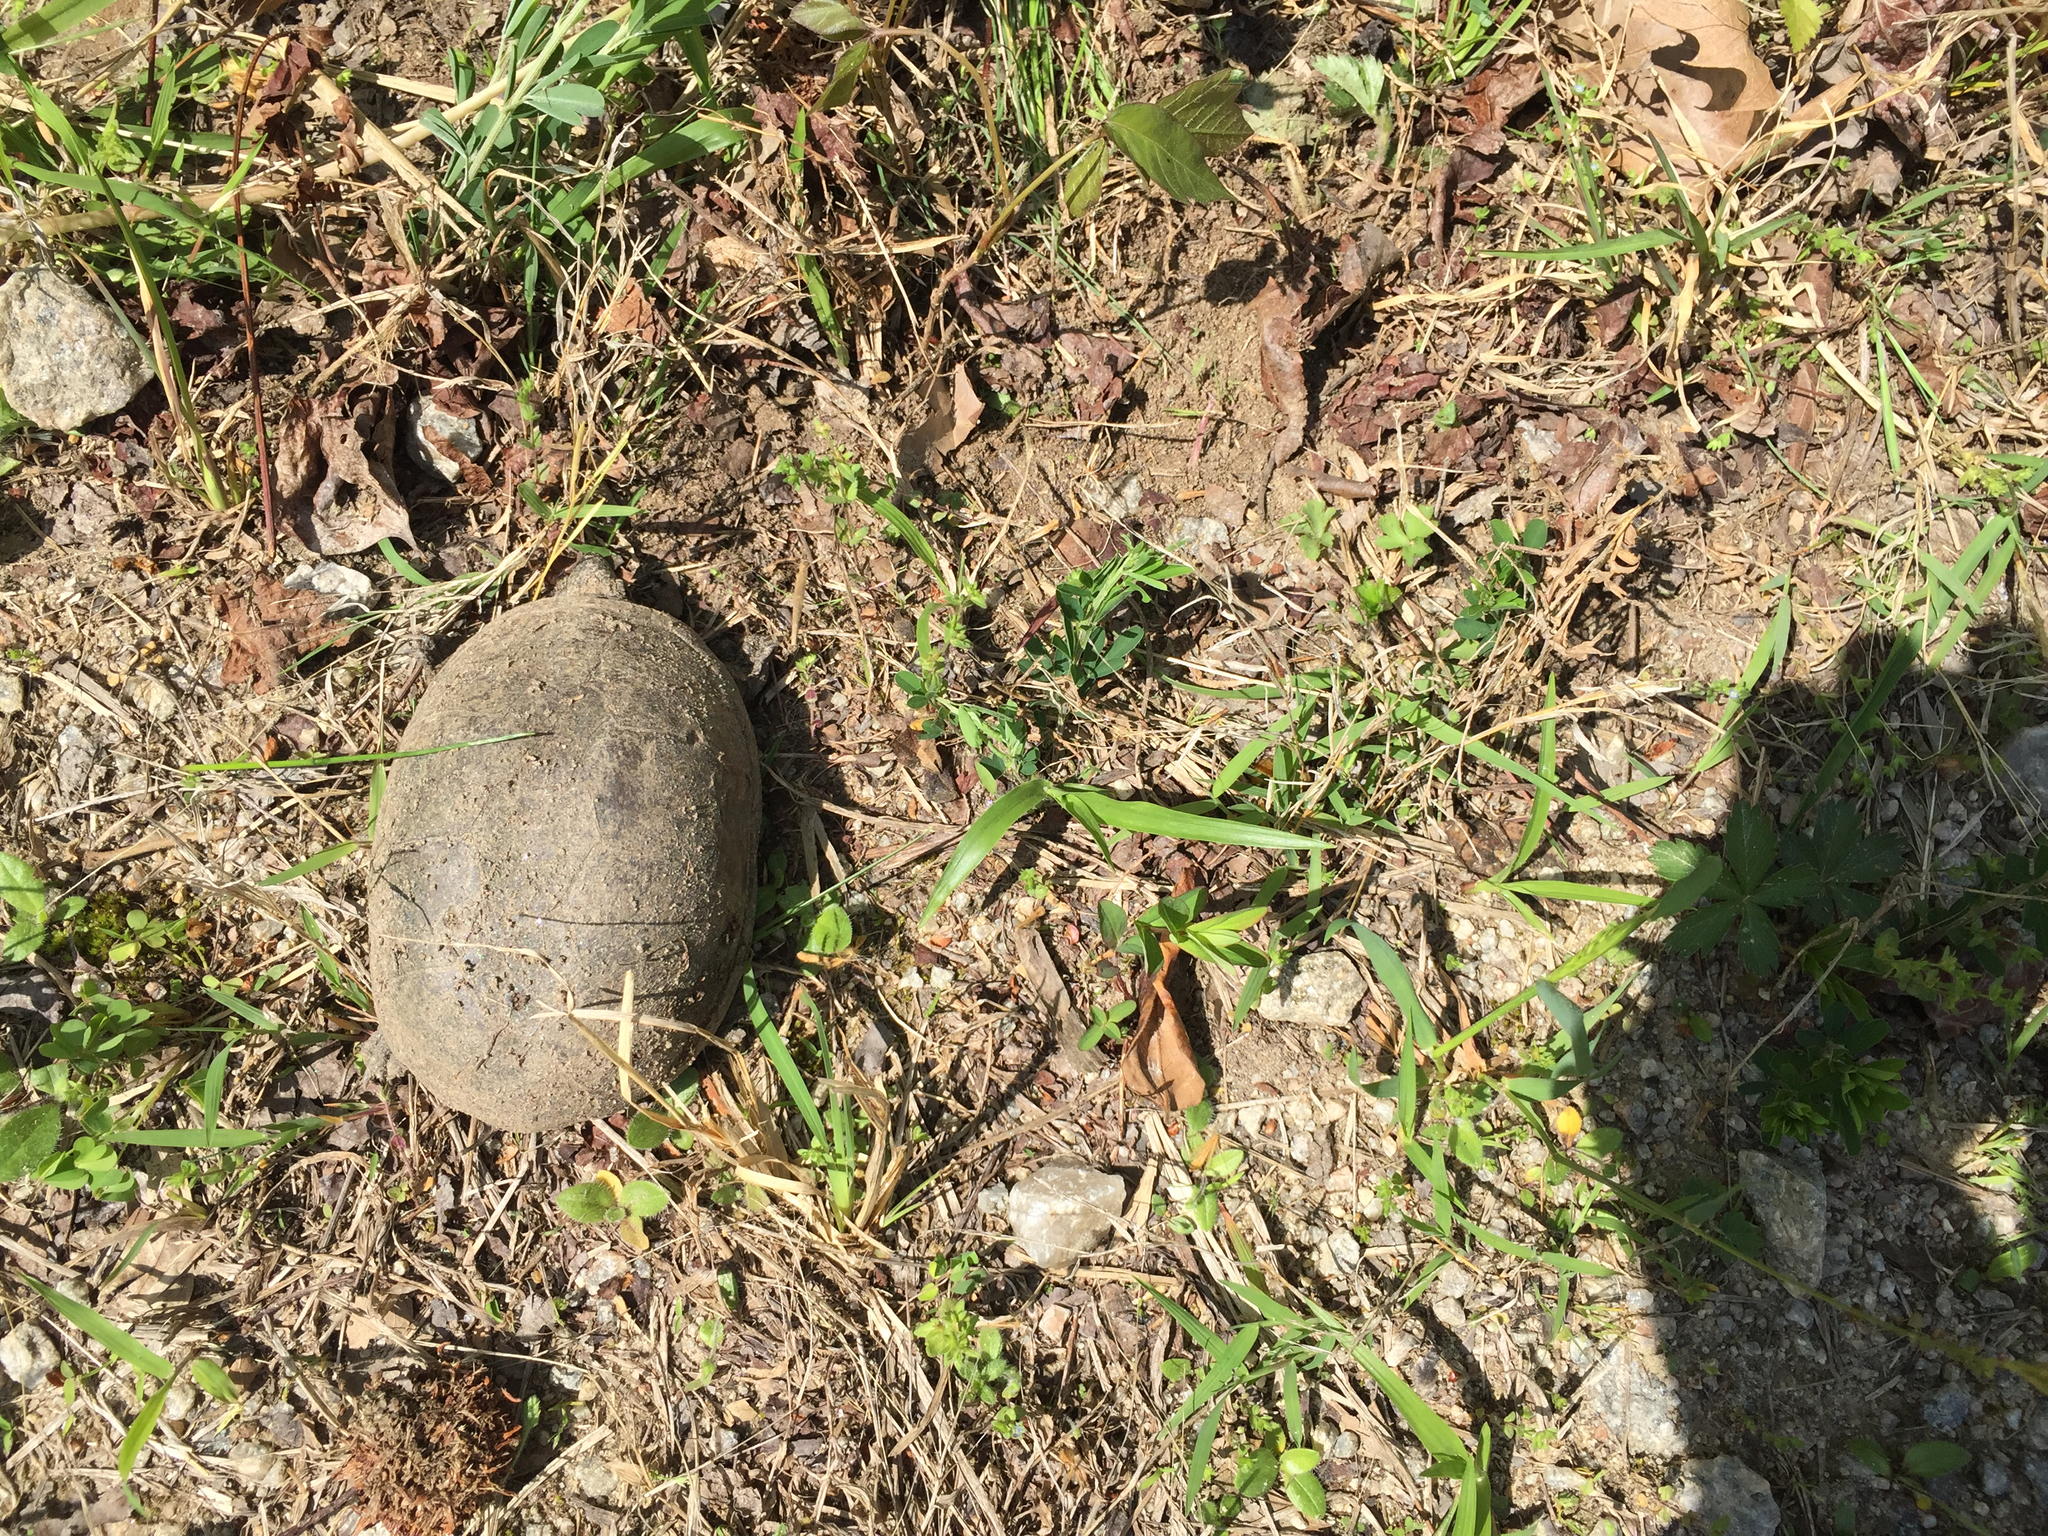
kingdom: Animalia
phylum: Chordata
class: Testudines
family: Kinosternidae
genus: Kinosternon
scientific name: Kinosternon subrubrum
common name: Eastern mud turtle
